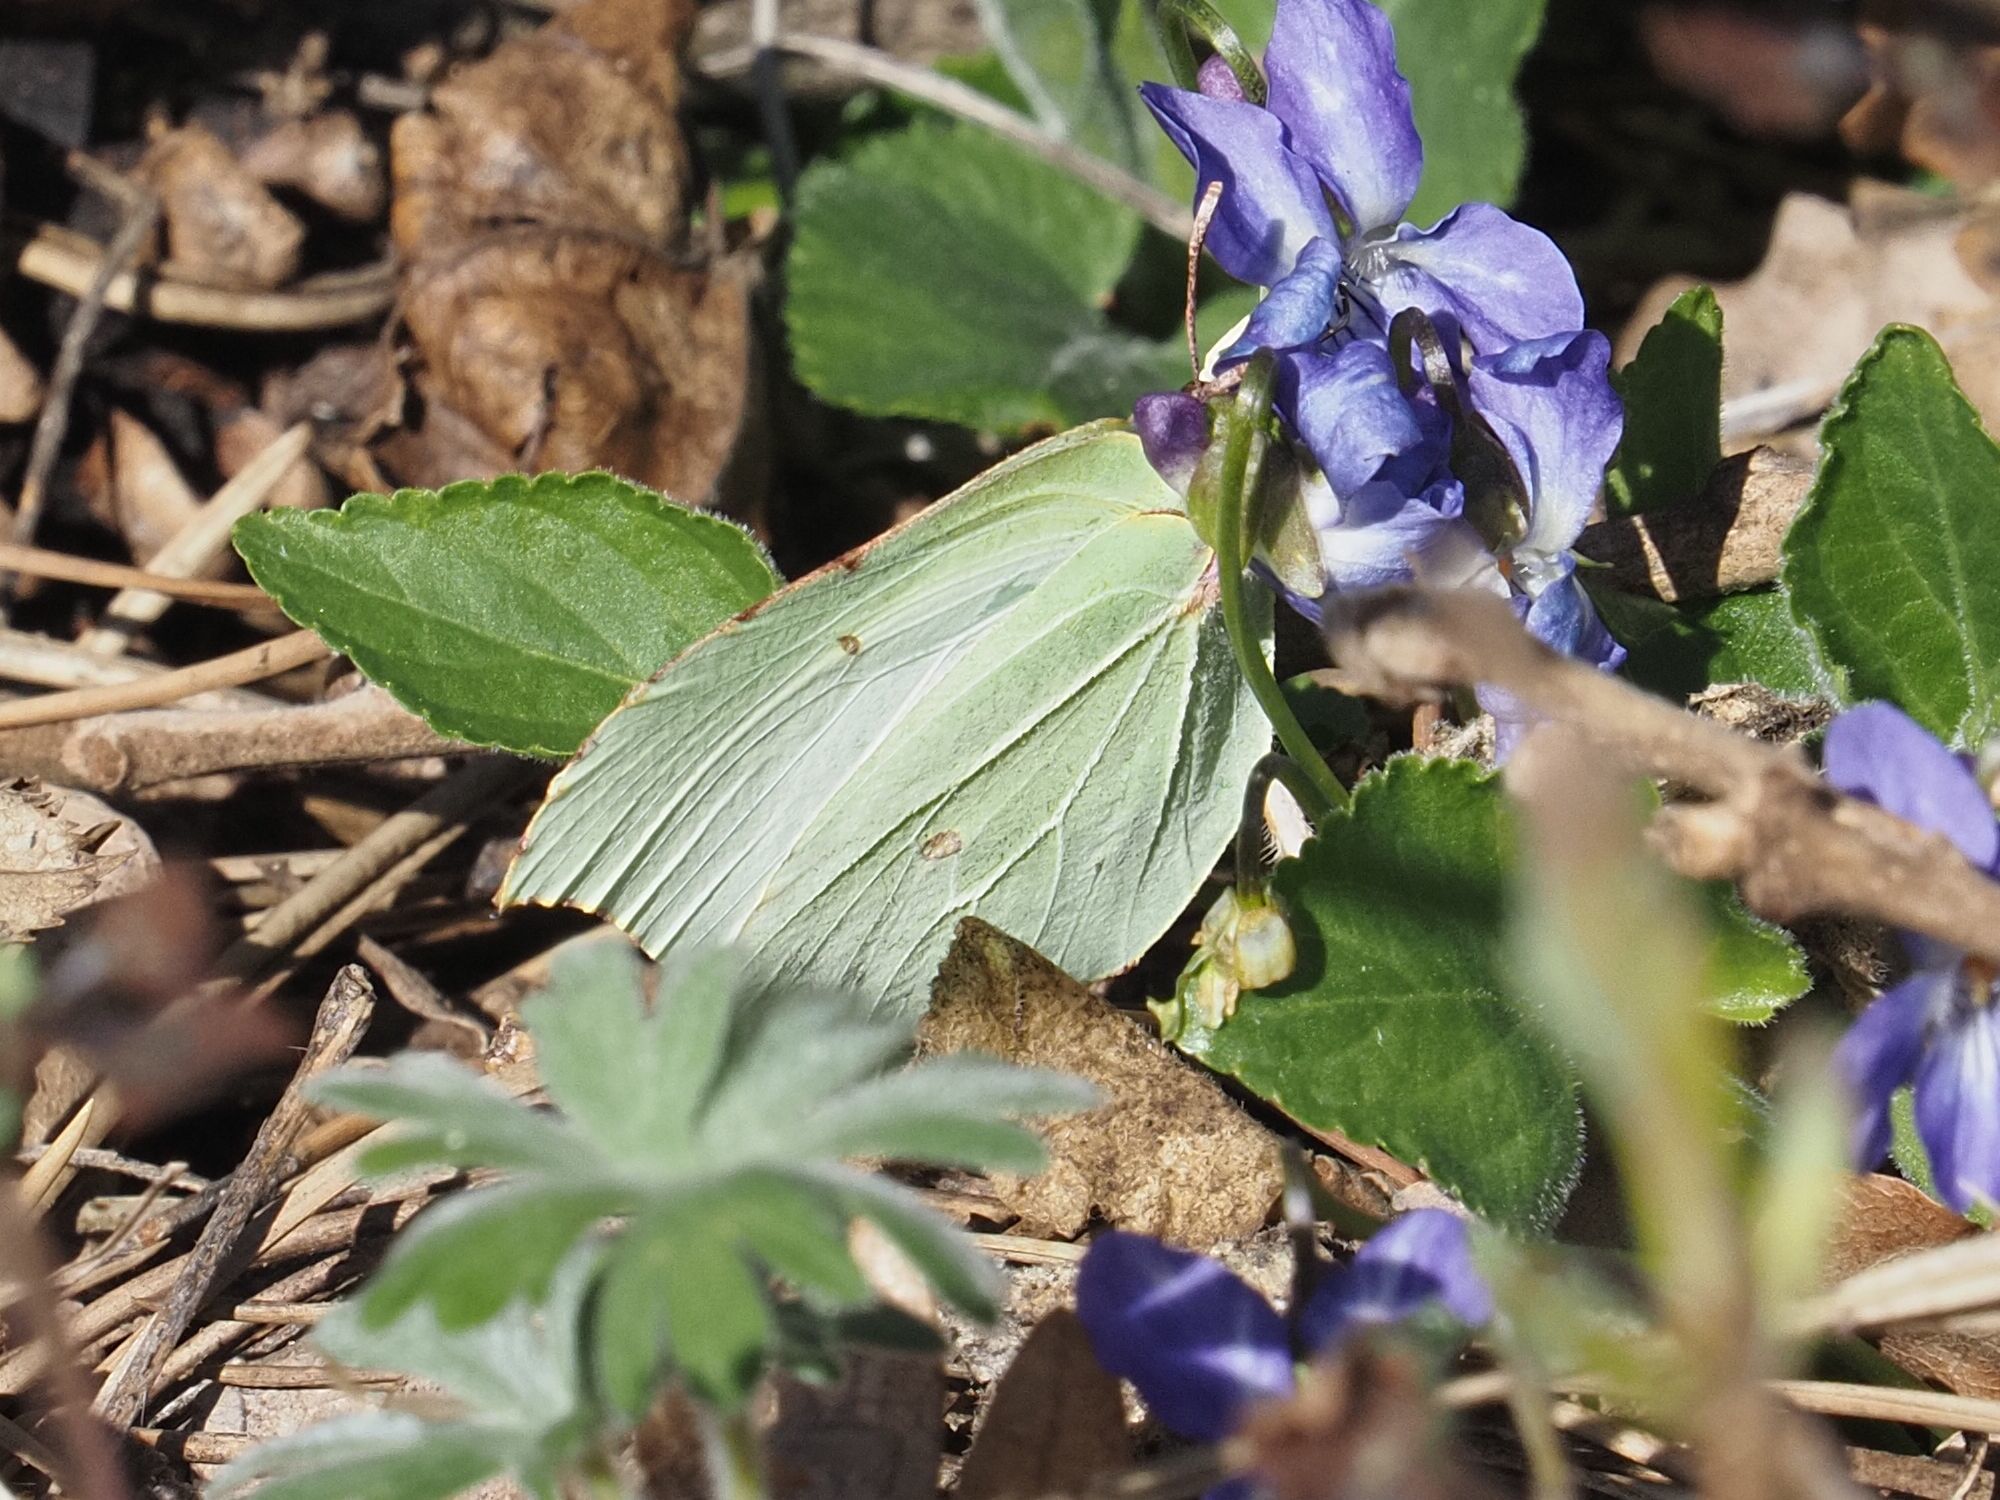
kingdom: Animalia
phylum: Arthropoda
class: Insecta
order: Lepidoptera
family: Pieridae
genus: Gonepteryx
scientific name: Gonepteryx rhamni
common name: Brimstone
